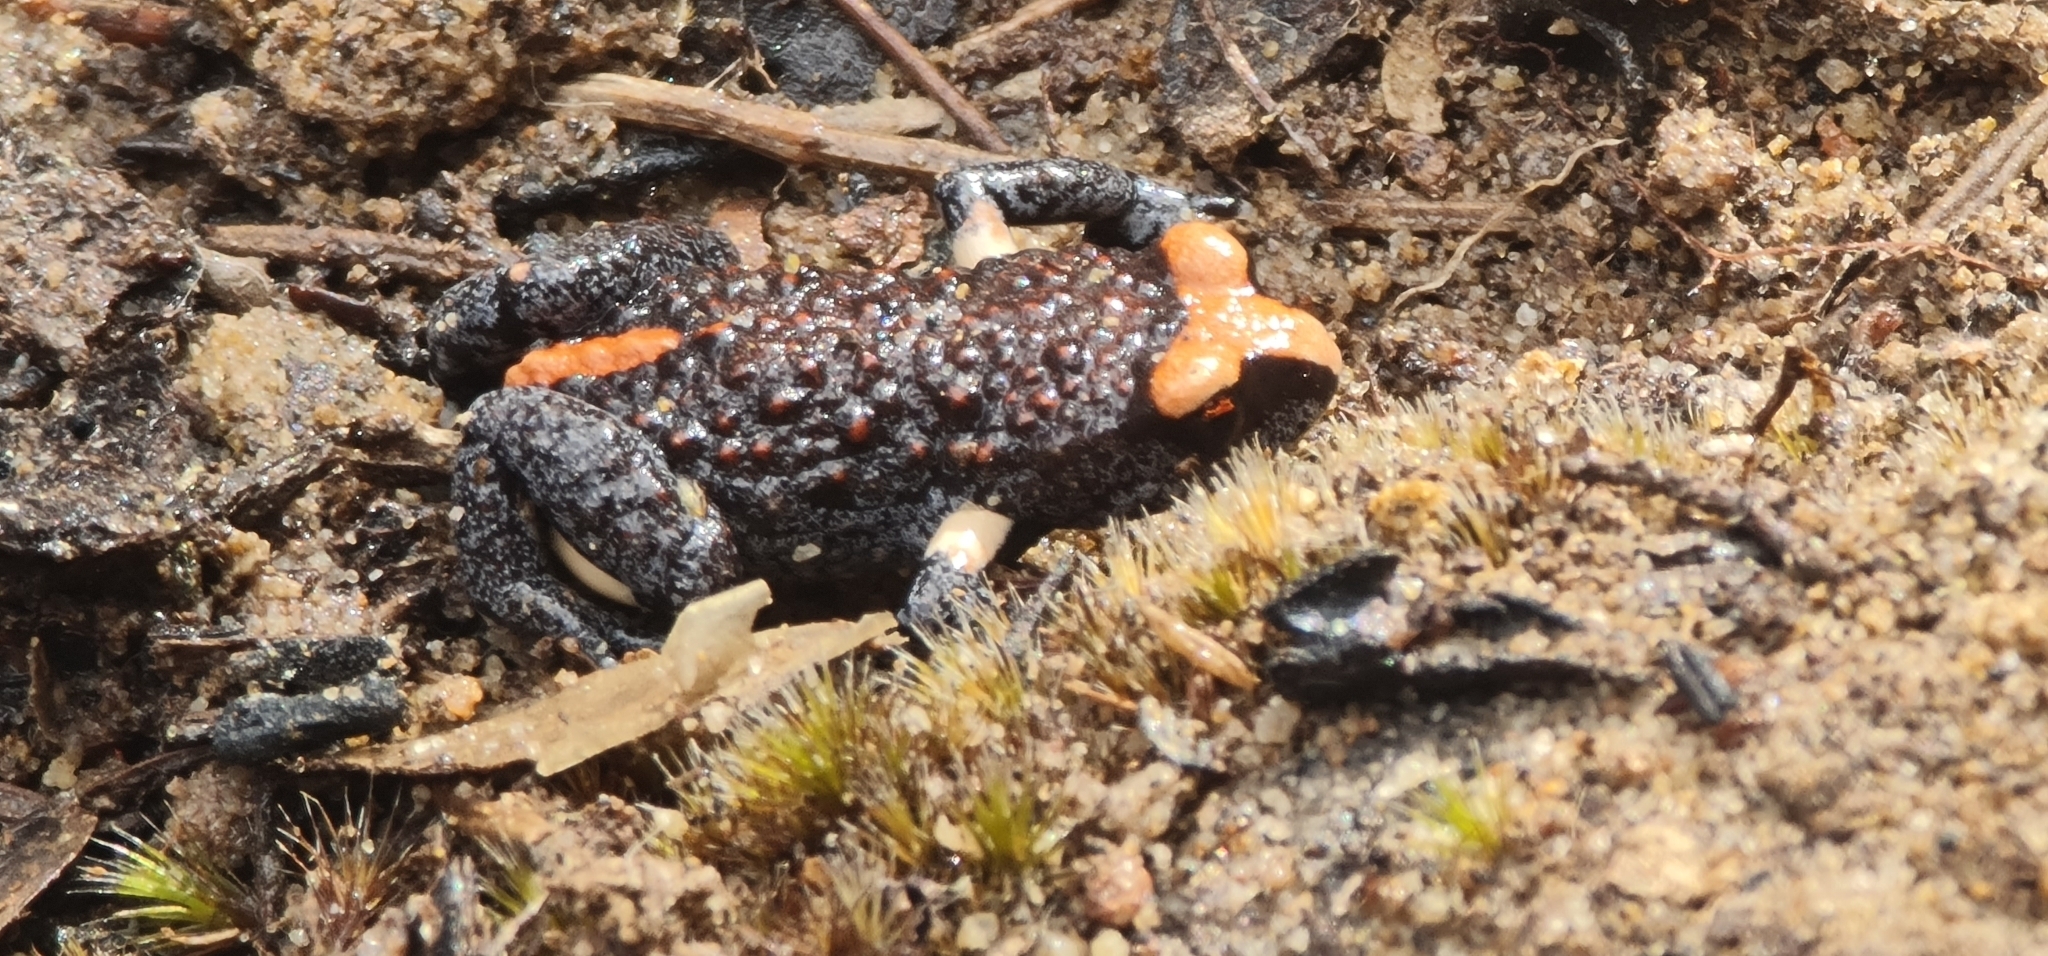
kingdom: Animalia
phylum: Chordata
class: Amphibia
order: Anura
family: Myobatrachidae
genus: Pseudophryne
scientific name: Pseudophryne australis
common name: Red-crowned toadlet
